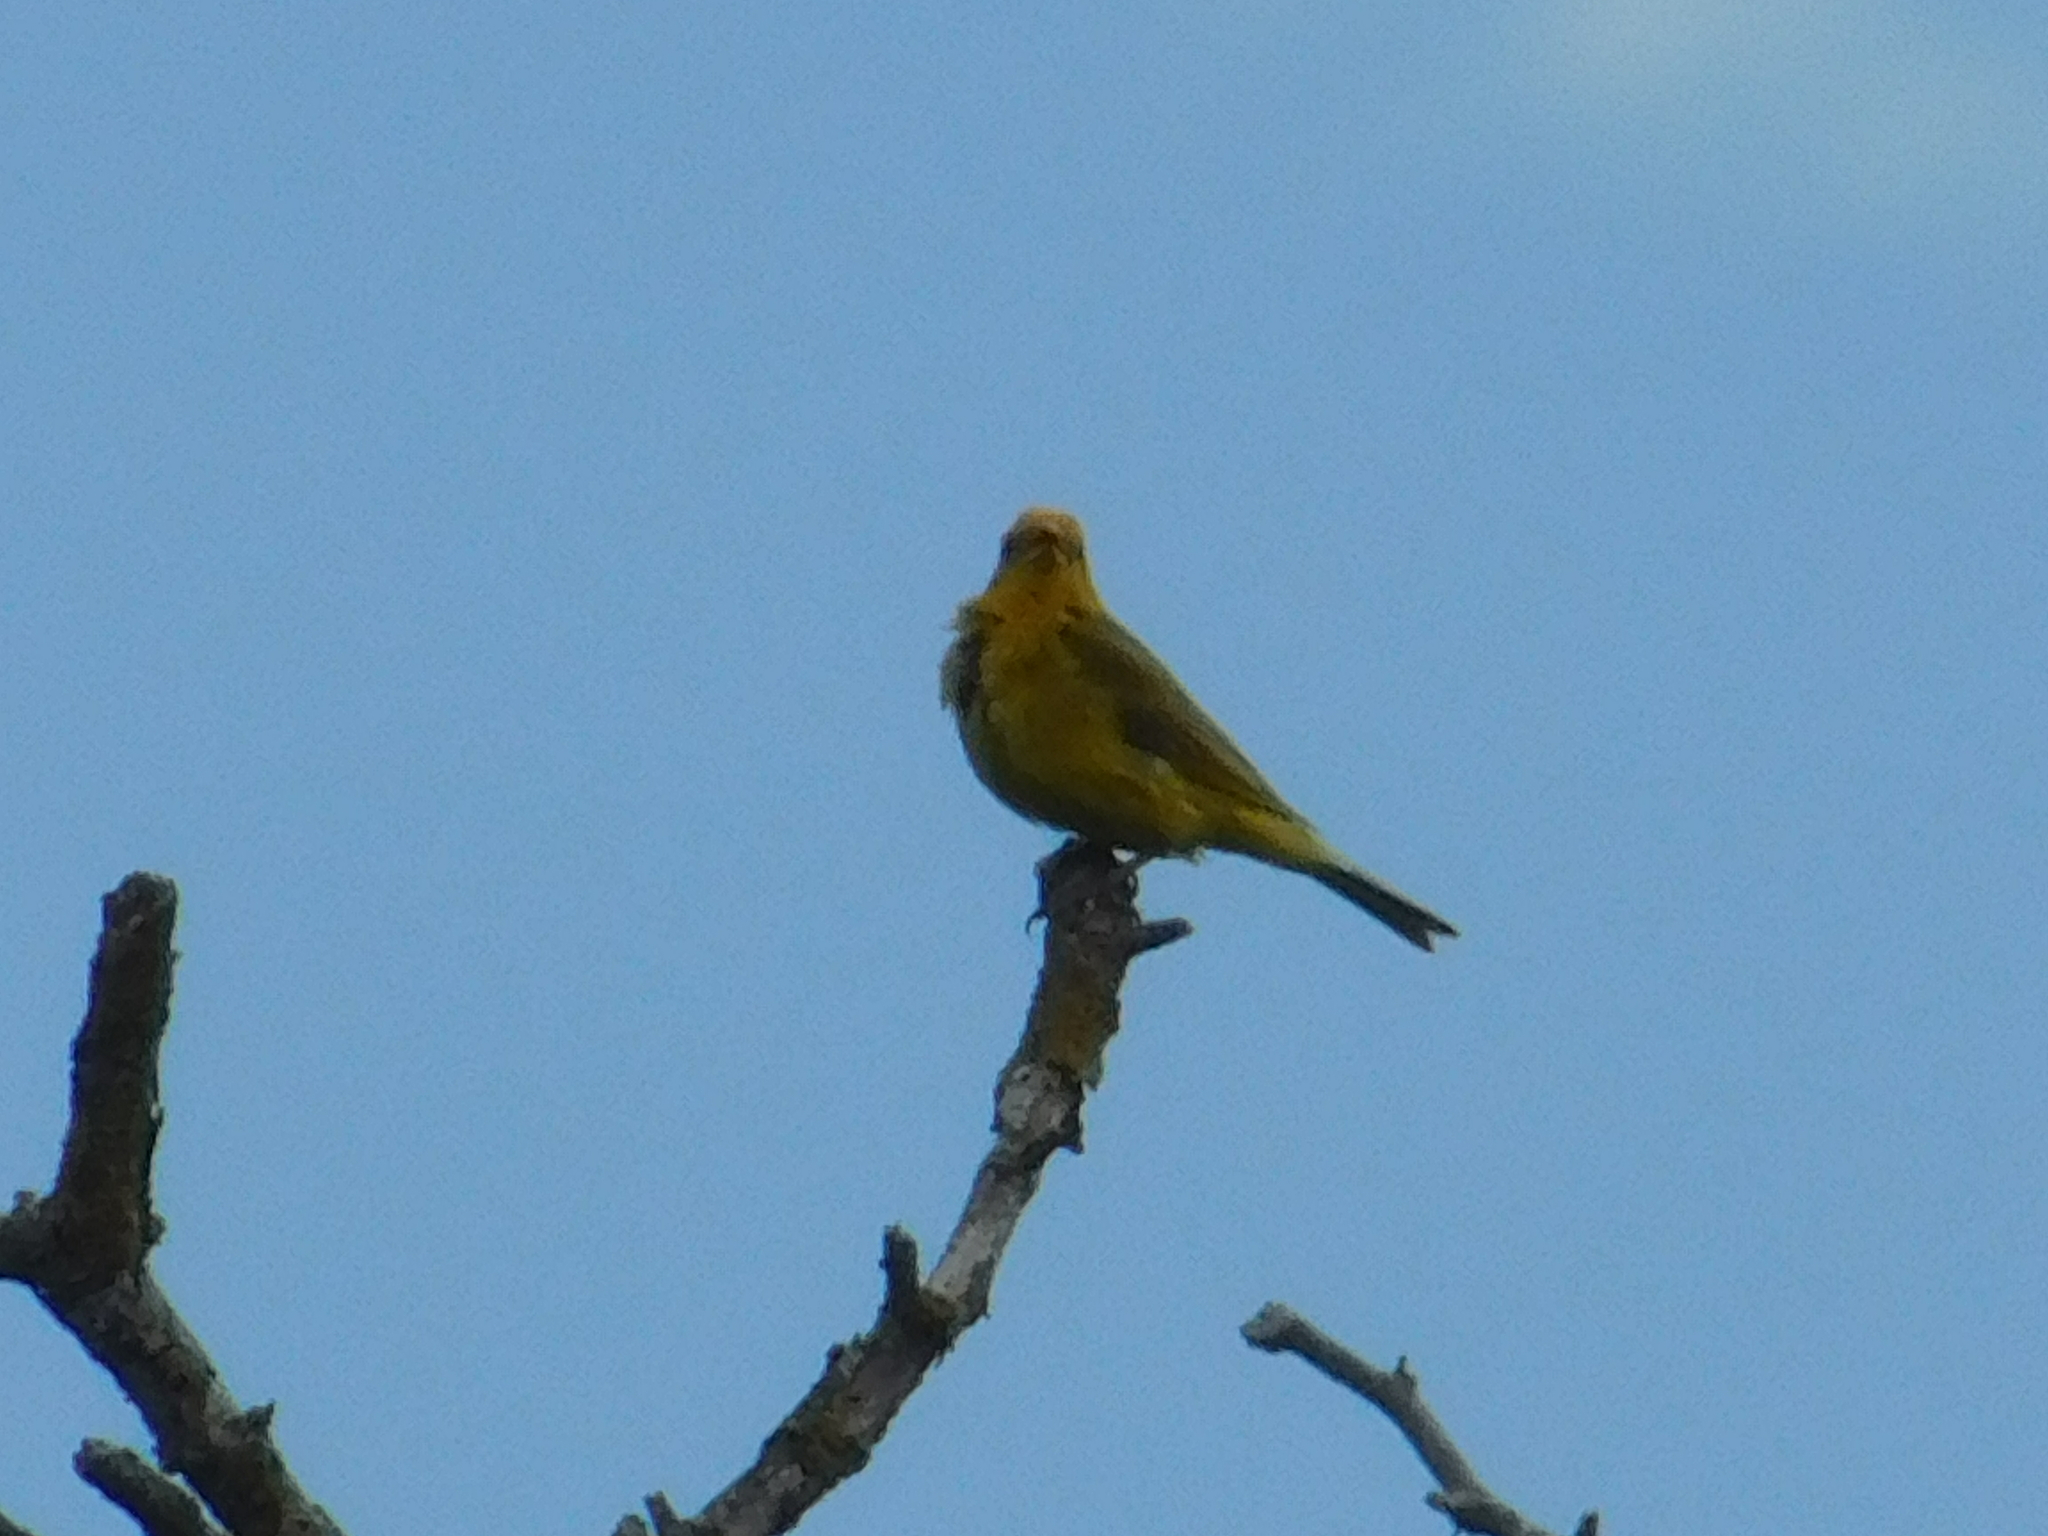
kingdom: Animalia
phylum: Chordata
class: Aves
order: Passeriformes
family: Thraupidae
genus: Sicalis
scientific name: Sicalis flaveola
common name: Saffron finch
